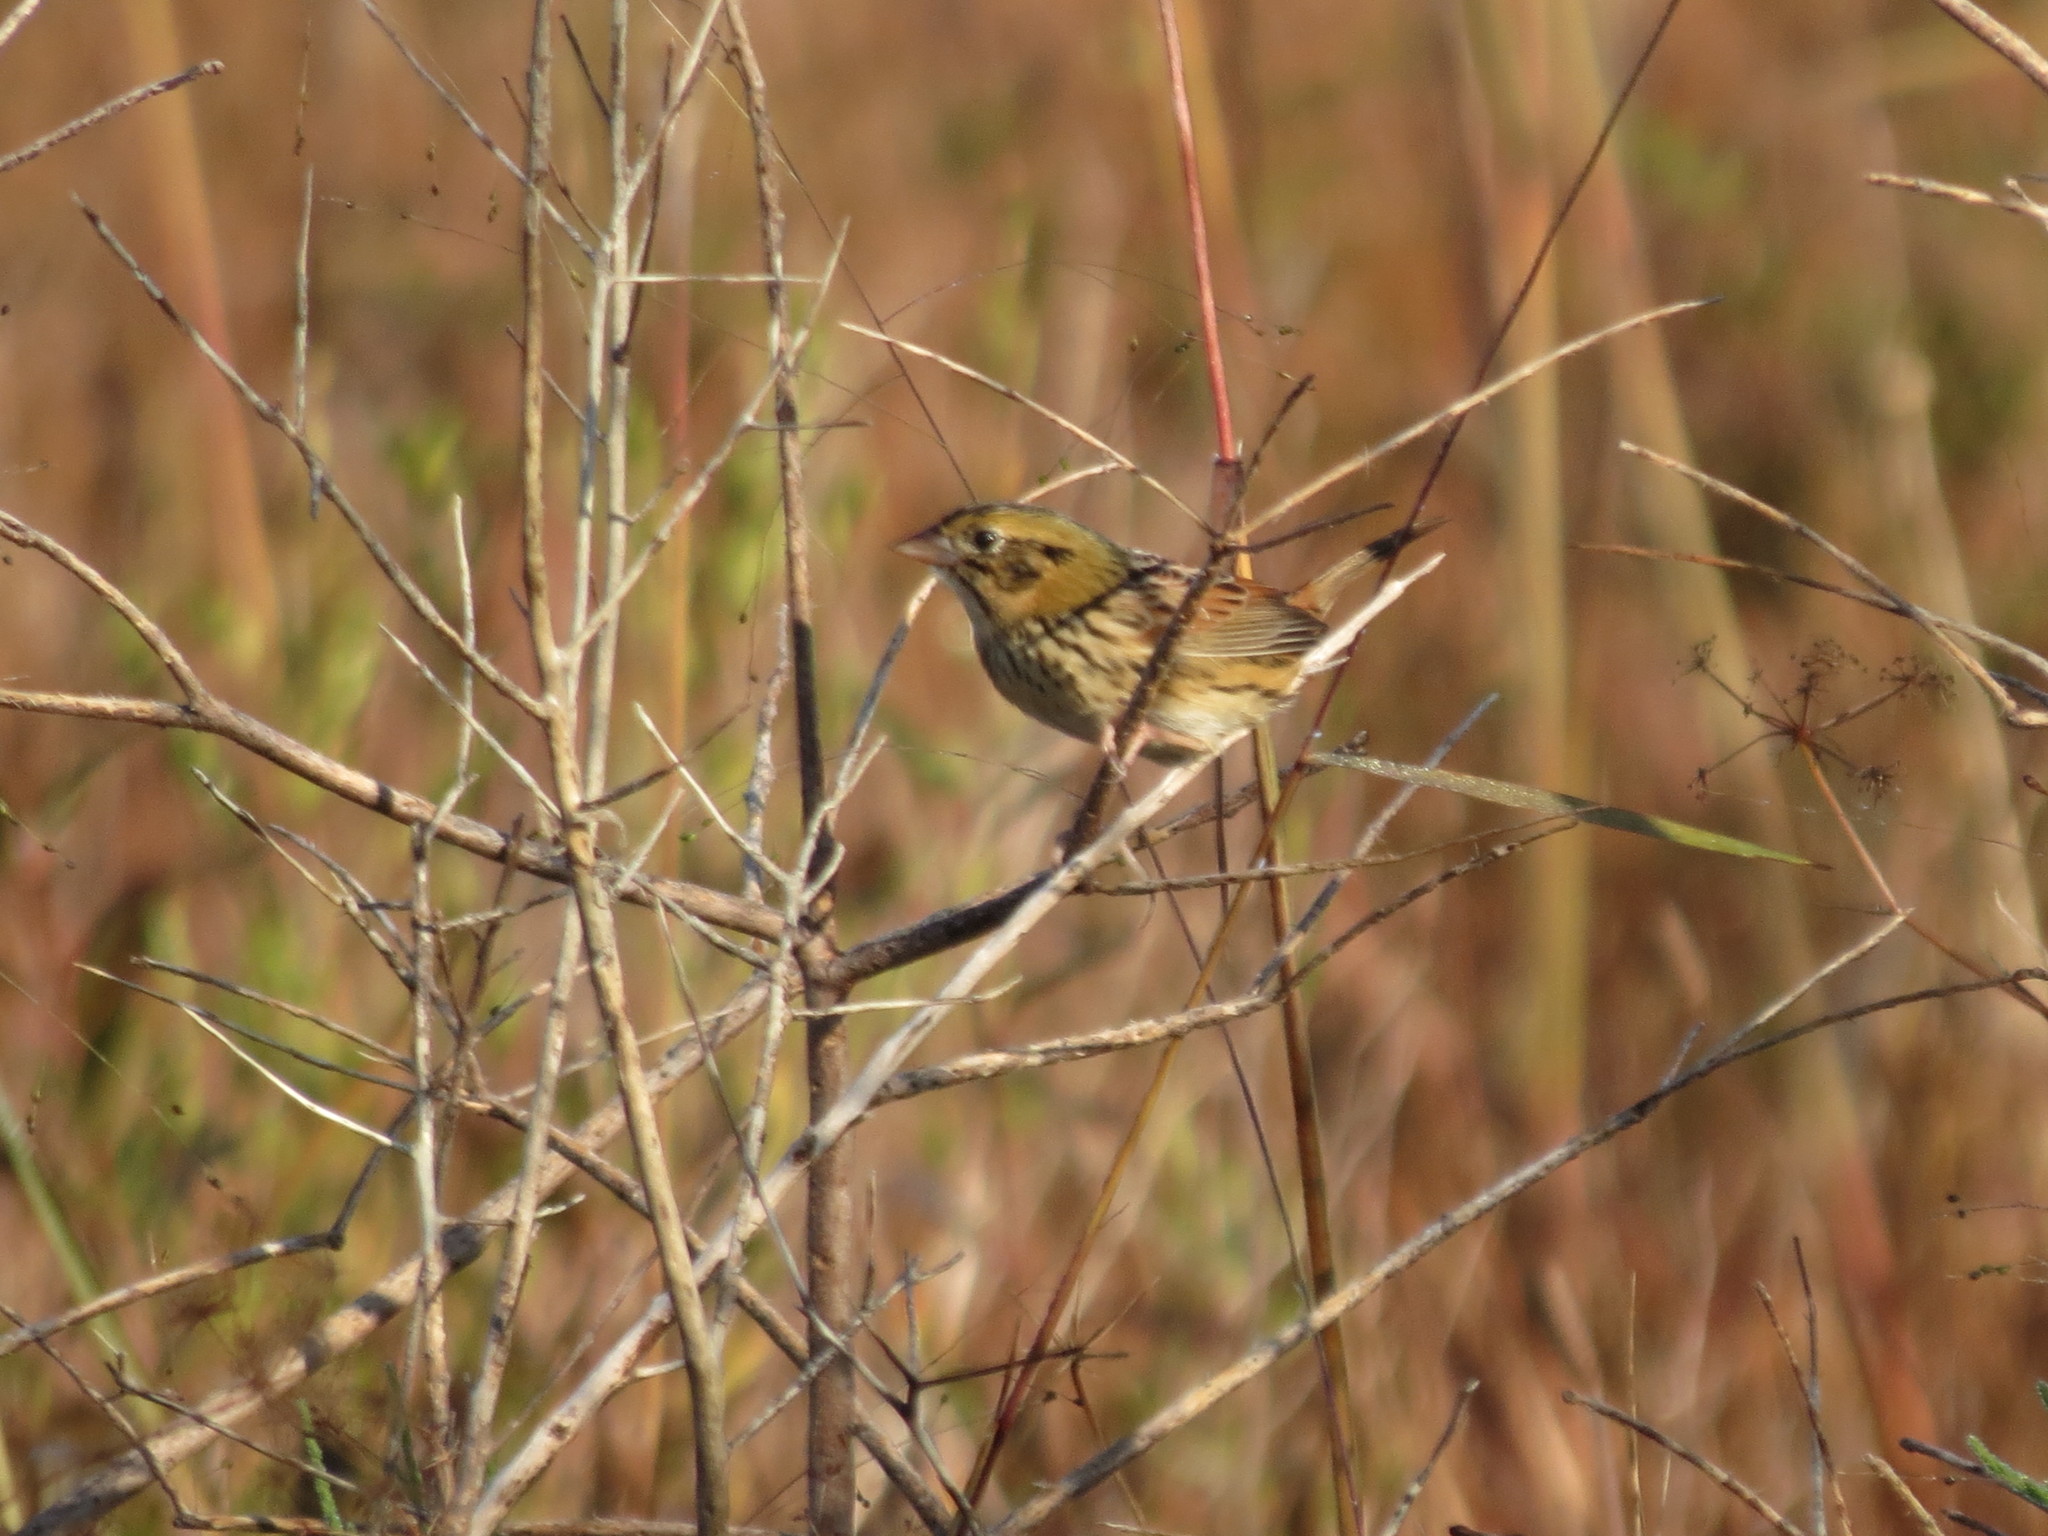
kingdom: Animalia
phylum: Chordata
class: Aves
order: Passeriformes
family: Passerellidae
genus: Centronyx
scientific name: Centronyx henslowii
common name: Henslow's sparrow
